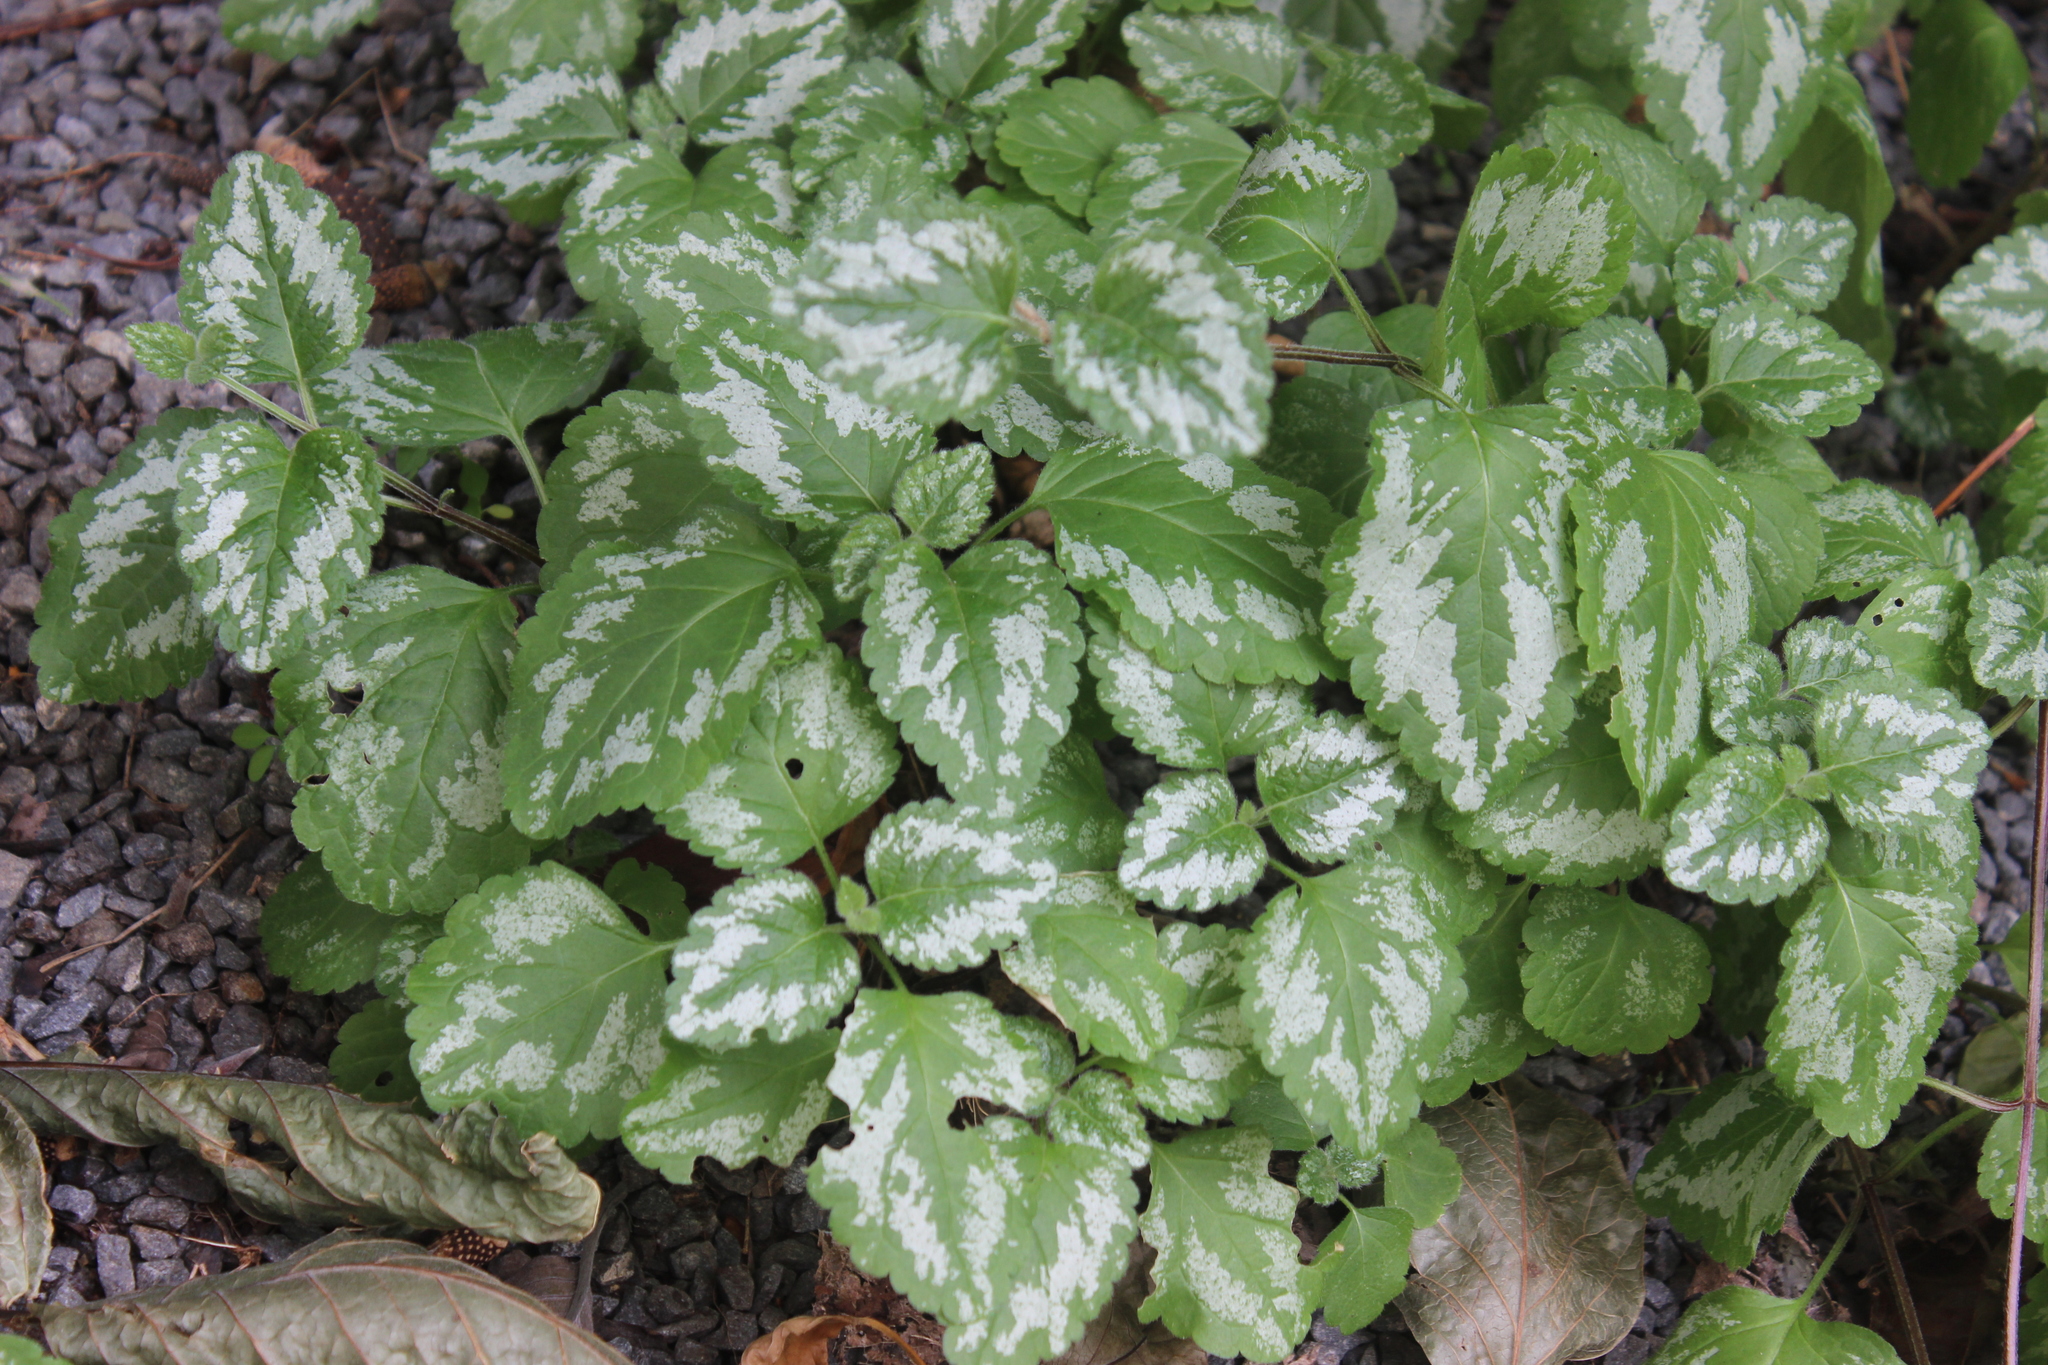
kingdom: Plantae
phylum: Tracheophyta
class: Magnoliopsida
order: Lamiales
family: Lamiaceae
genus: Lamium
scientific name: Lamium galeobdolon
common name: Yellow archangel
